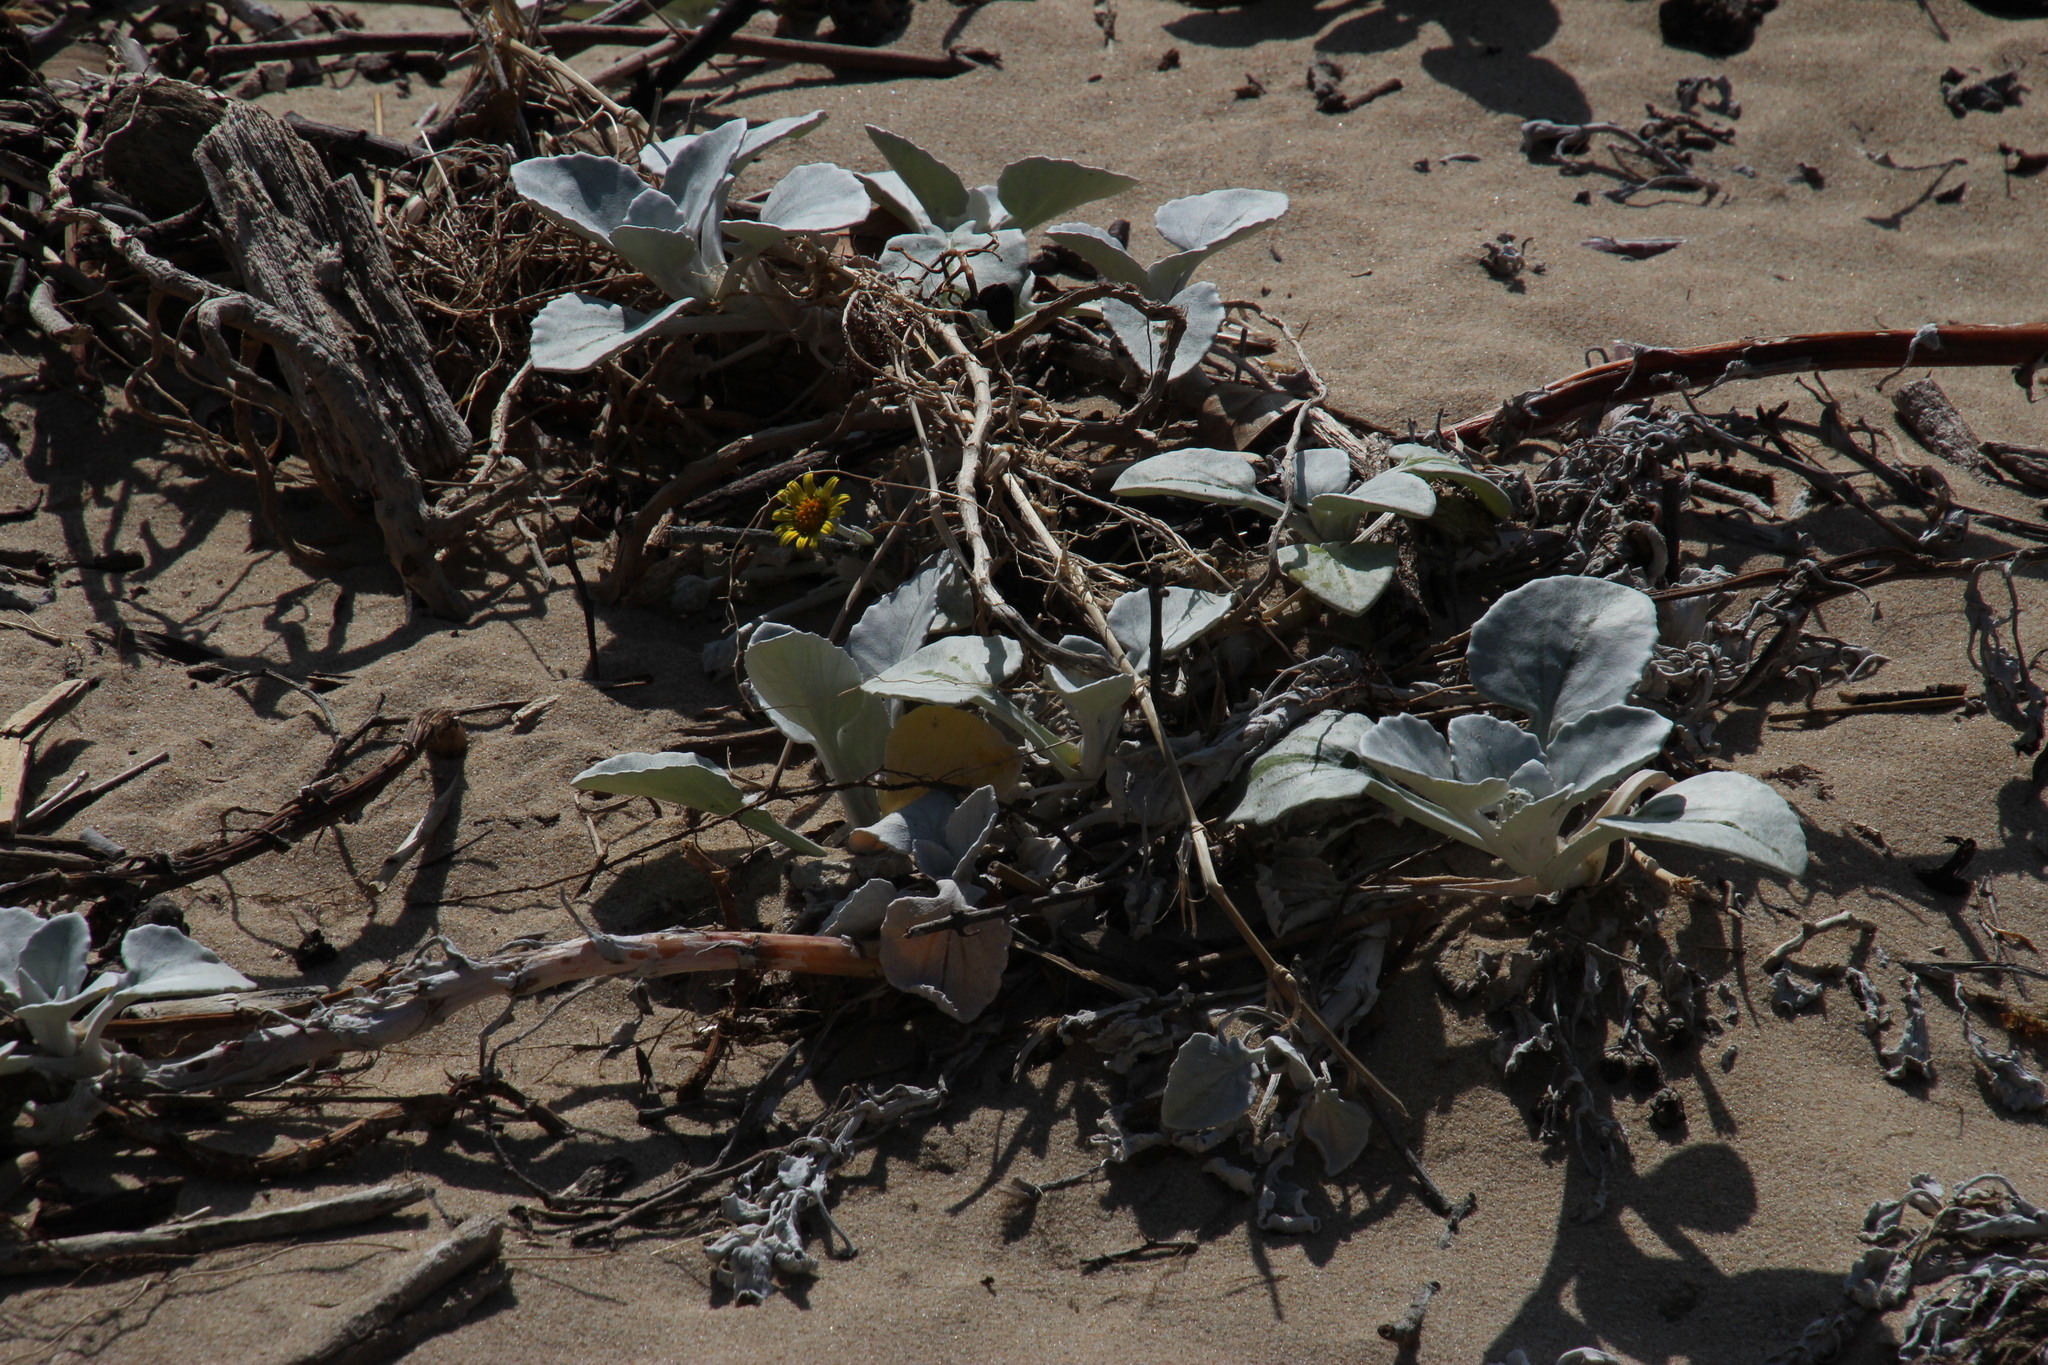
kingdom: Plantae
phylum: Tracheophyta
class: Magnoliopsida
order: Asterales
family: Asteraceae
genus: Arctotheca
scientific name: Arctotheca populifolia
